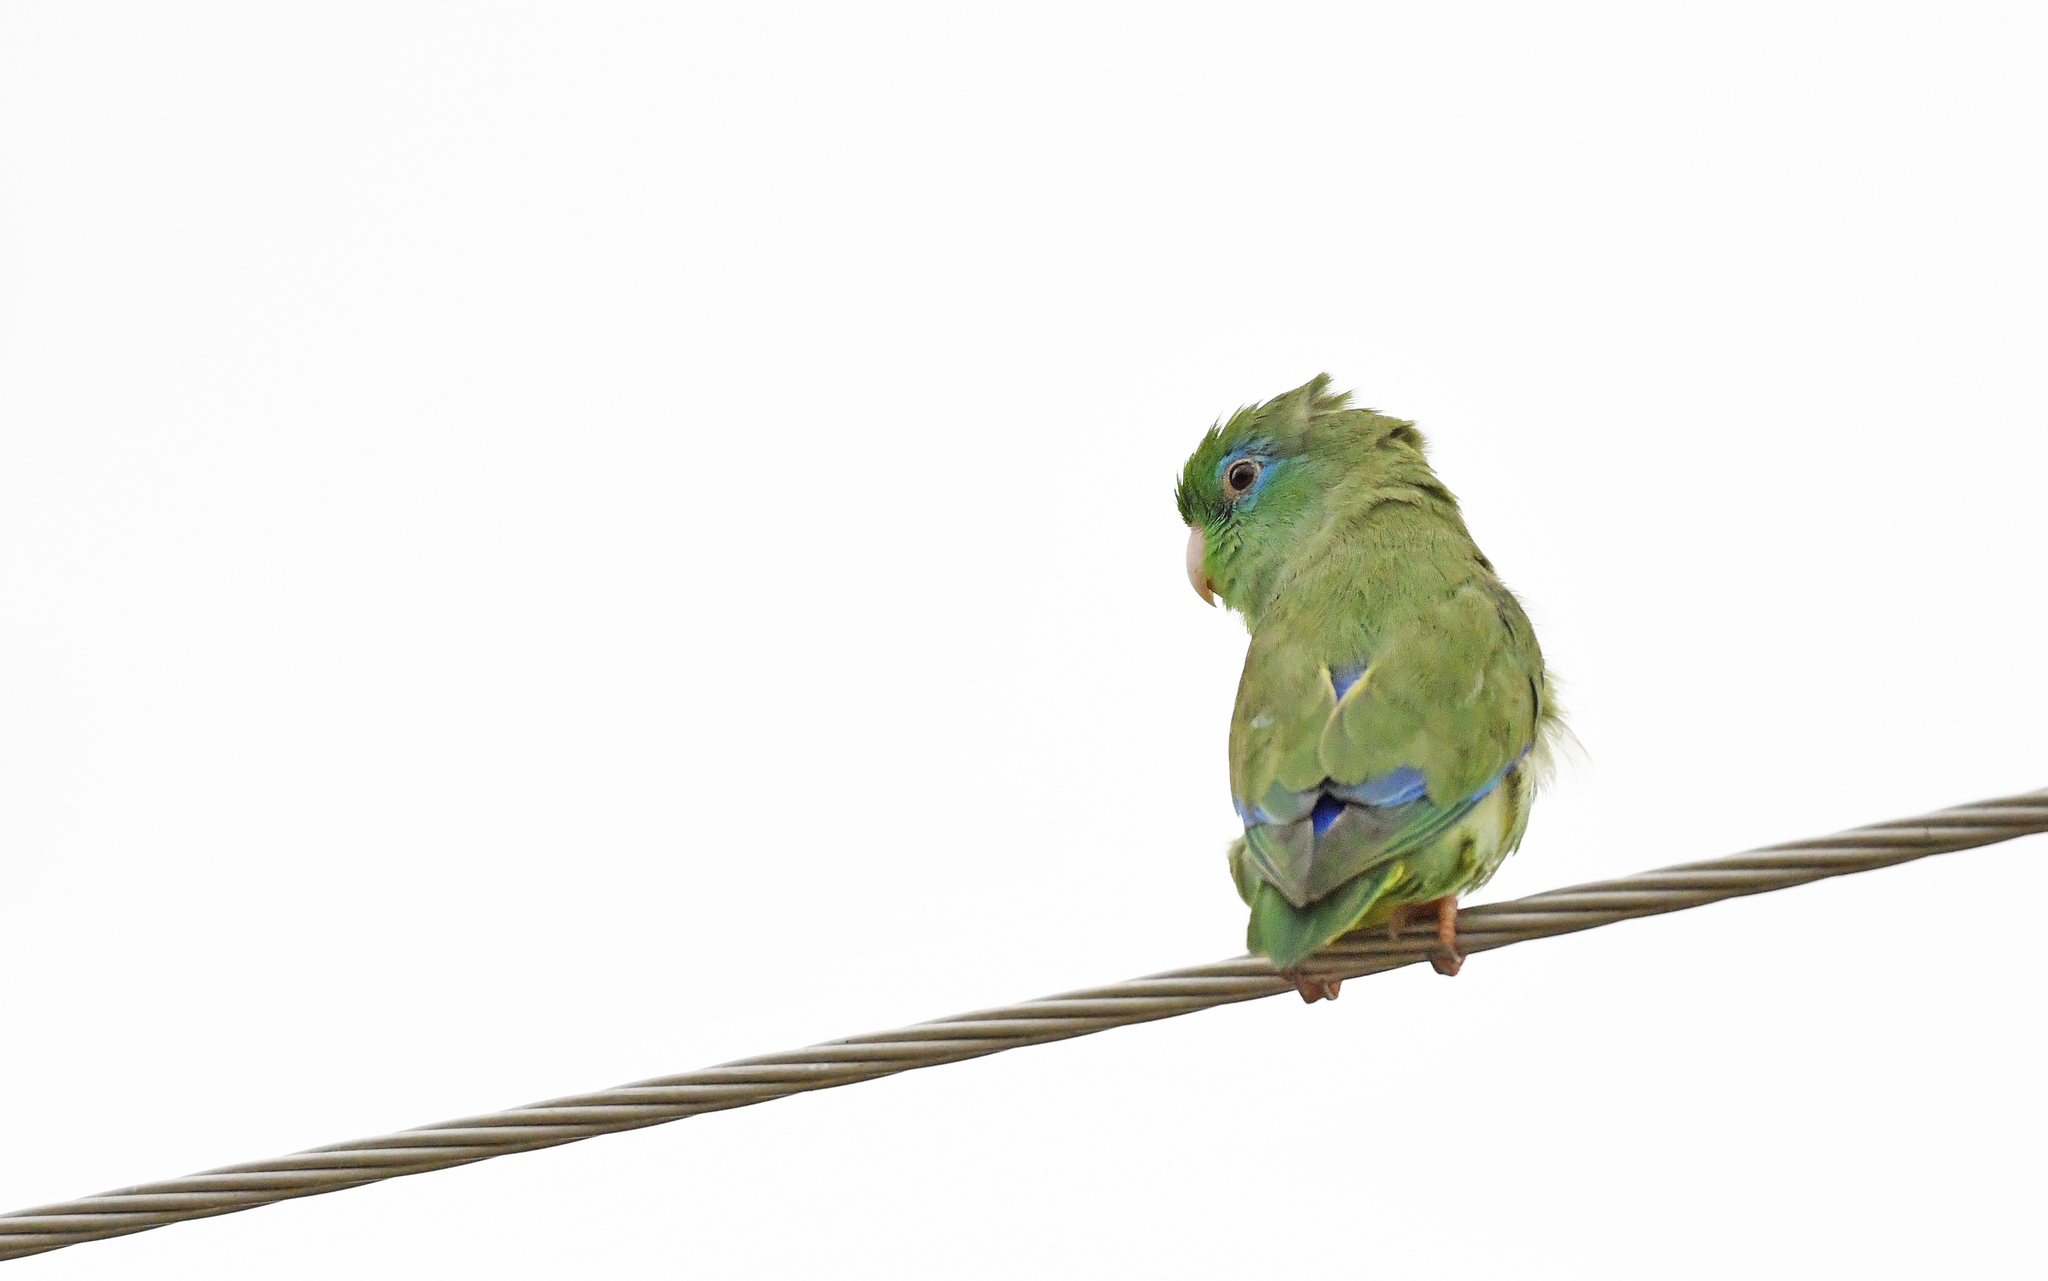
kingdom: Animalia
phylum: Chordata
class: Aves
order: Psittaciformes
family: Psittacidae
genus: Forpus
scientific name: Forpus conspicillatus
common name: Spectacled parrotlet
